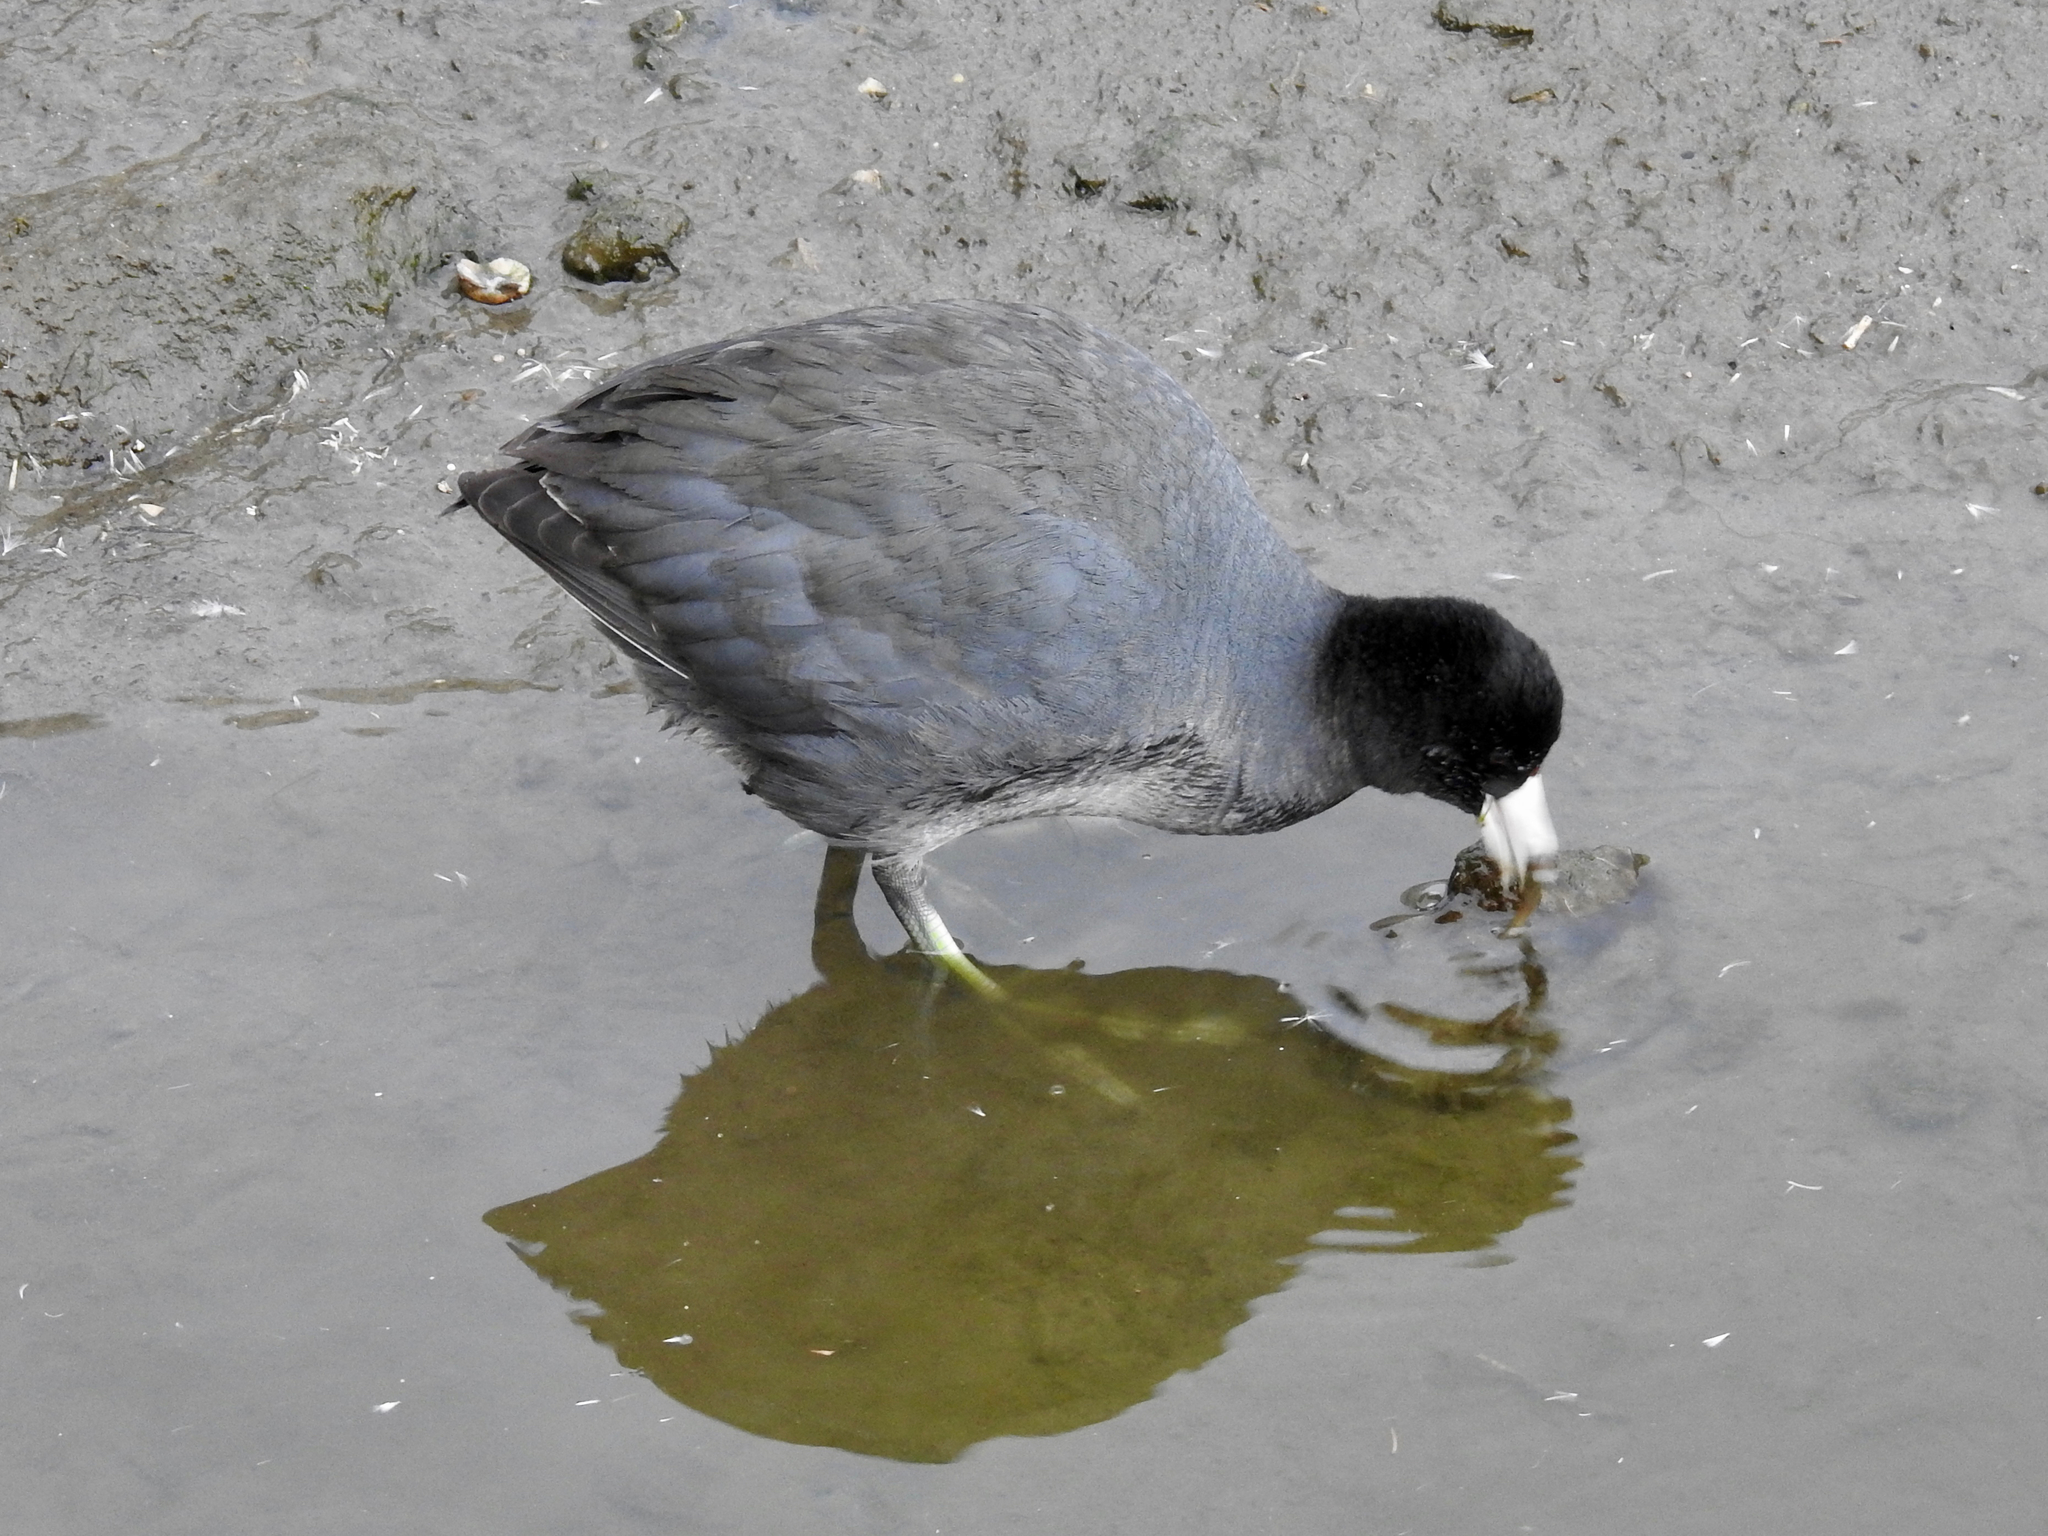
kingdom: Animalia
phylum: Chordata
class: Aves
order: Gruiformes
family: Rallidae
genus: Fulica
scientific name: Fulica americana
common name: American coot
